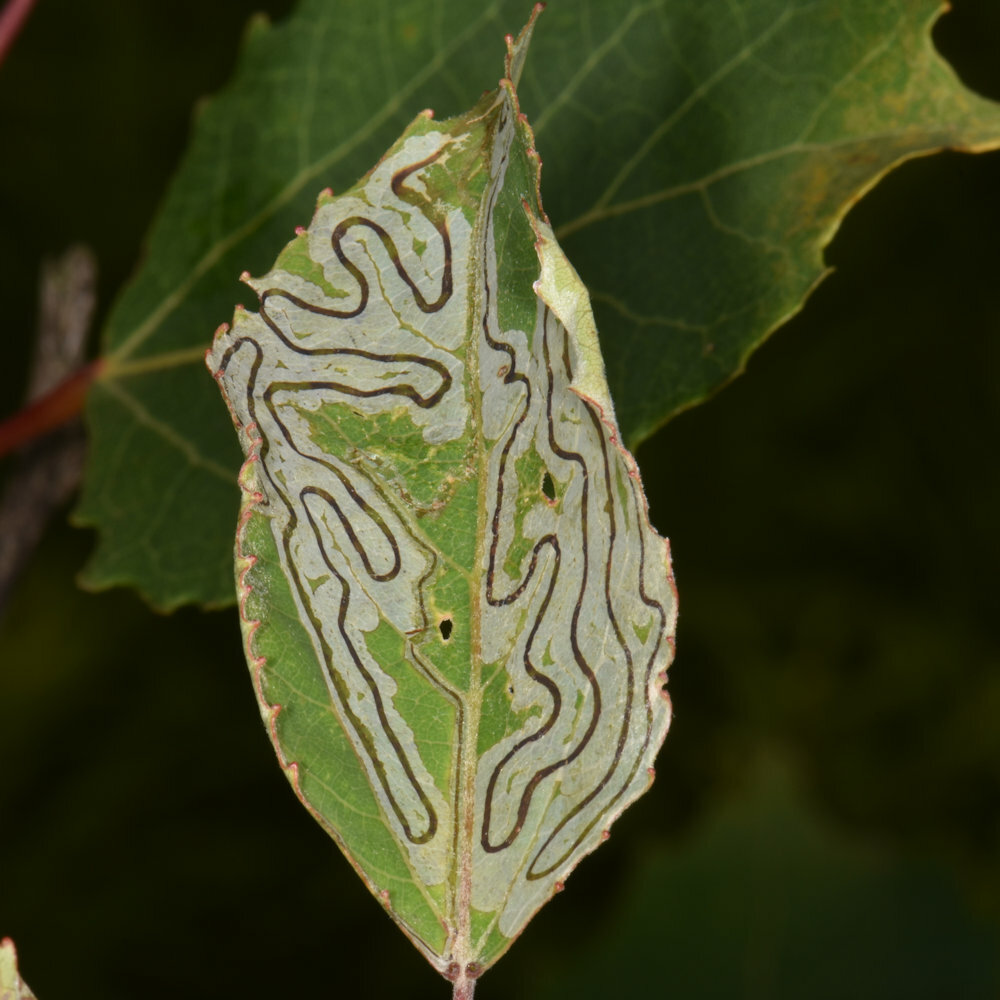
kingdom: Animalia
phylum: Arthropoda
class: Insecta
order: Lepidoptera
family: Gracillariidae
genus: Phyllocnistis
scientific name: Phyllocnistis populiella
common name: Aspen serpentine leafminer moth
